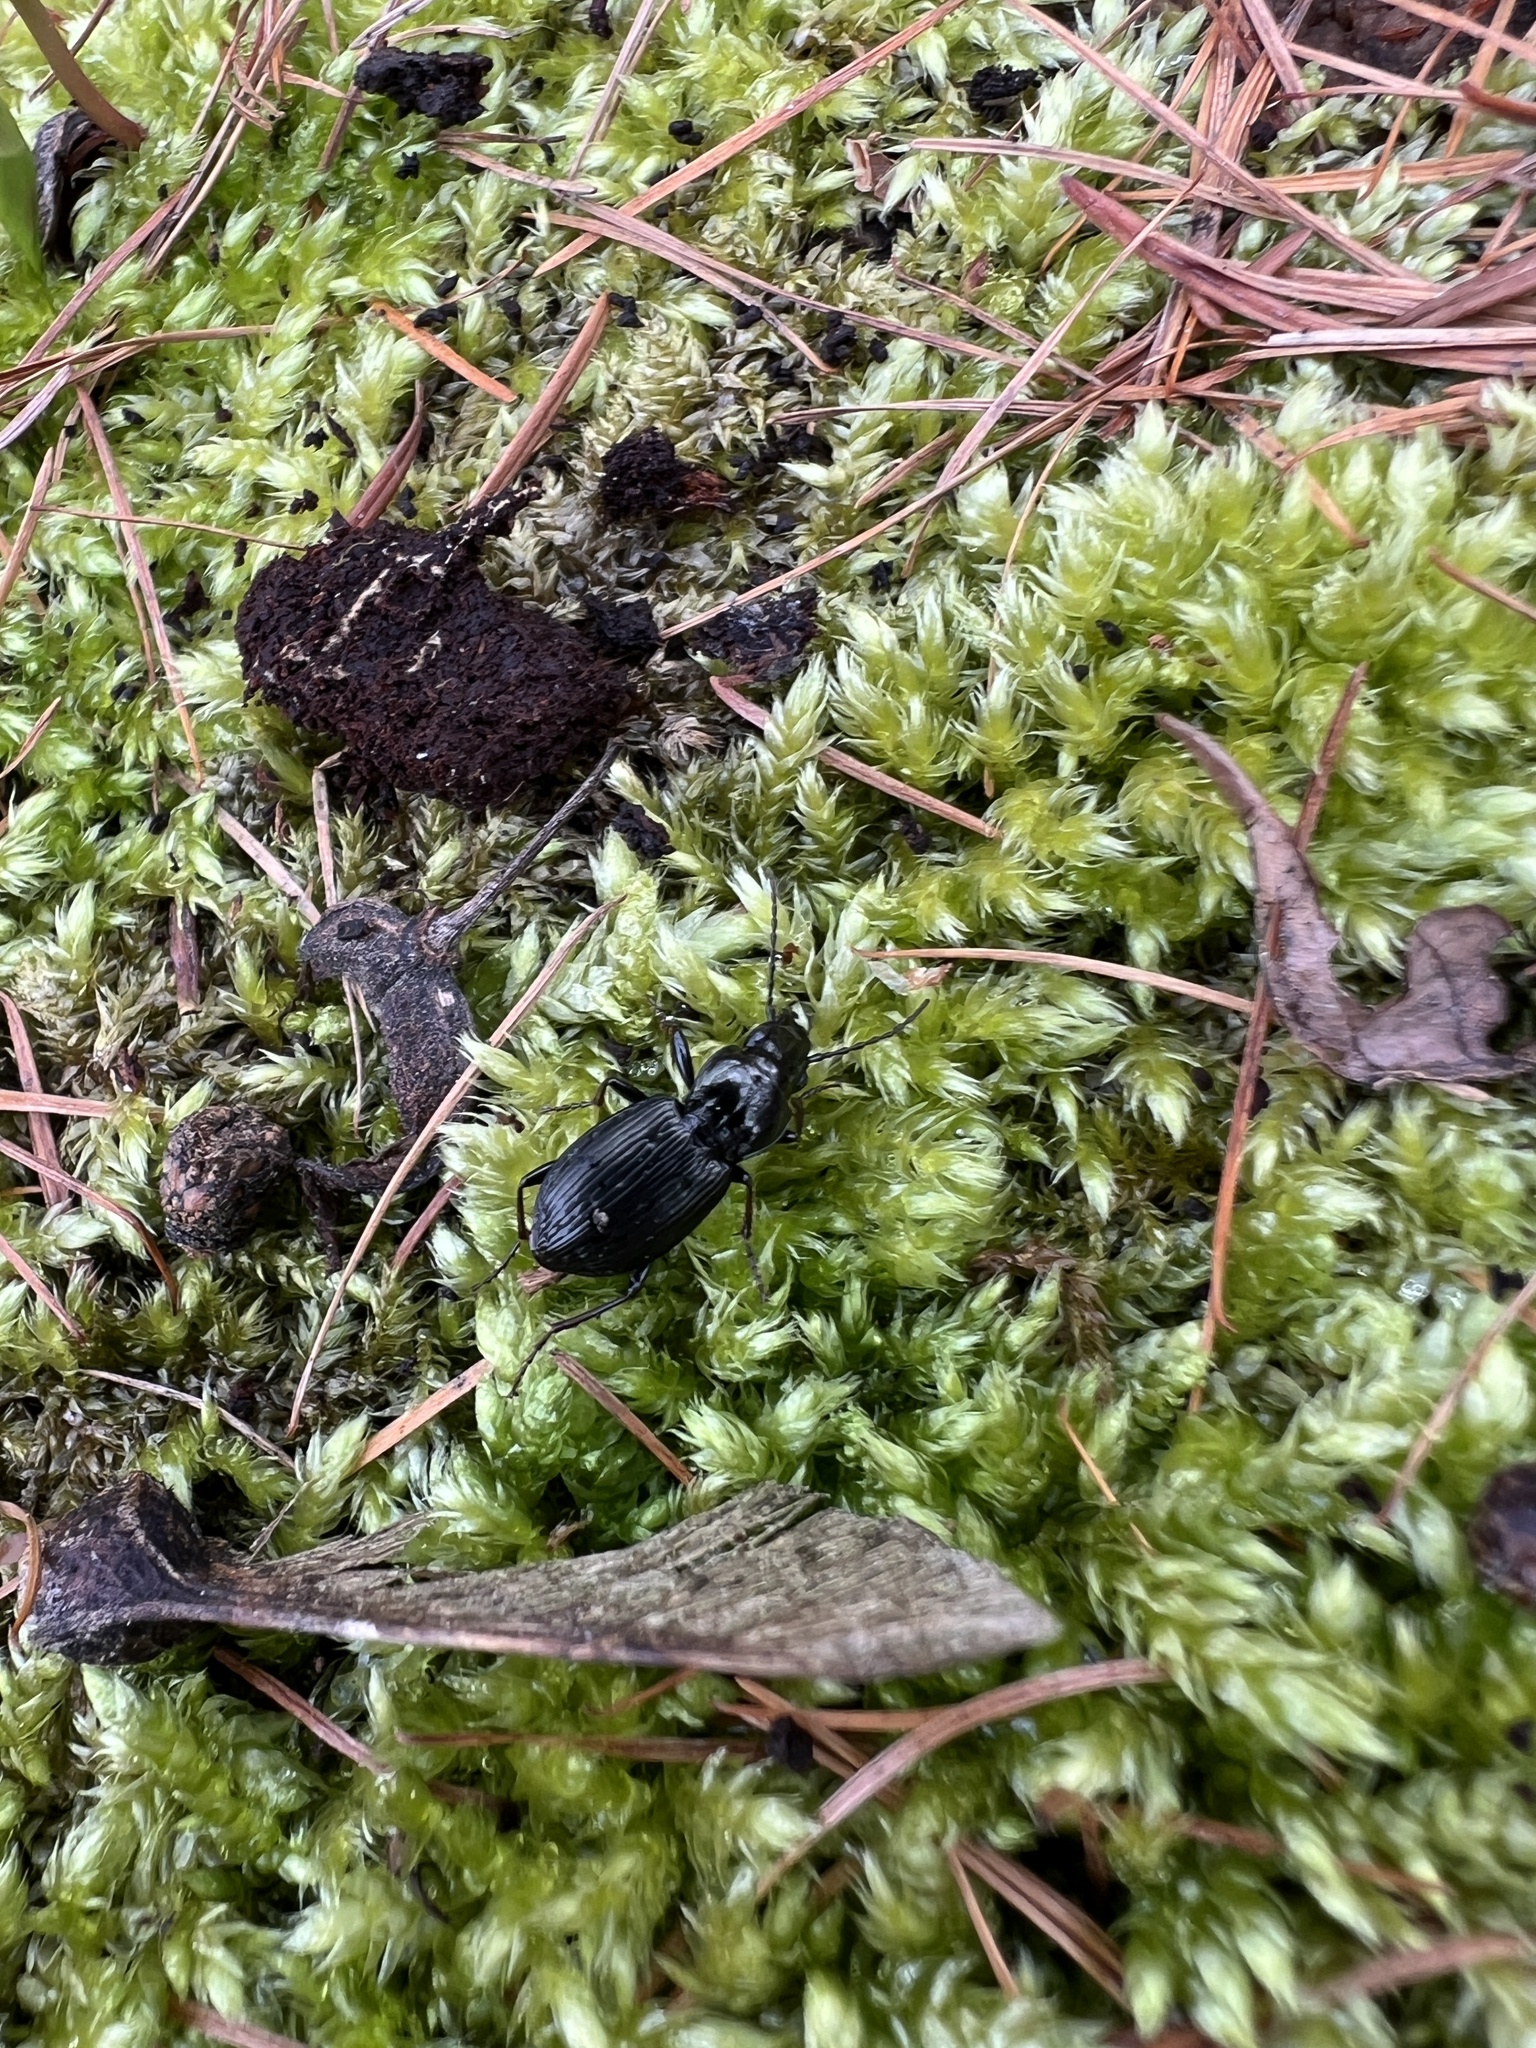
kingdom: Animalia
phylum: Arthropoda
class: Insecta
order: Coleoptera
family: Carabidae
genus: Pterostichus
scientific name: Pterostichus oblongopunctatus
